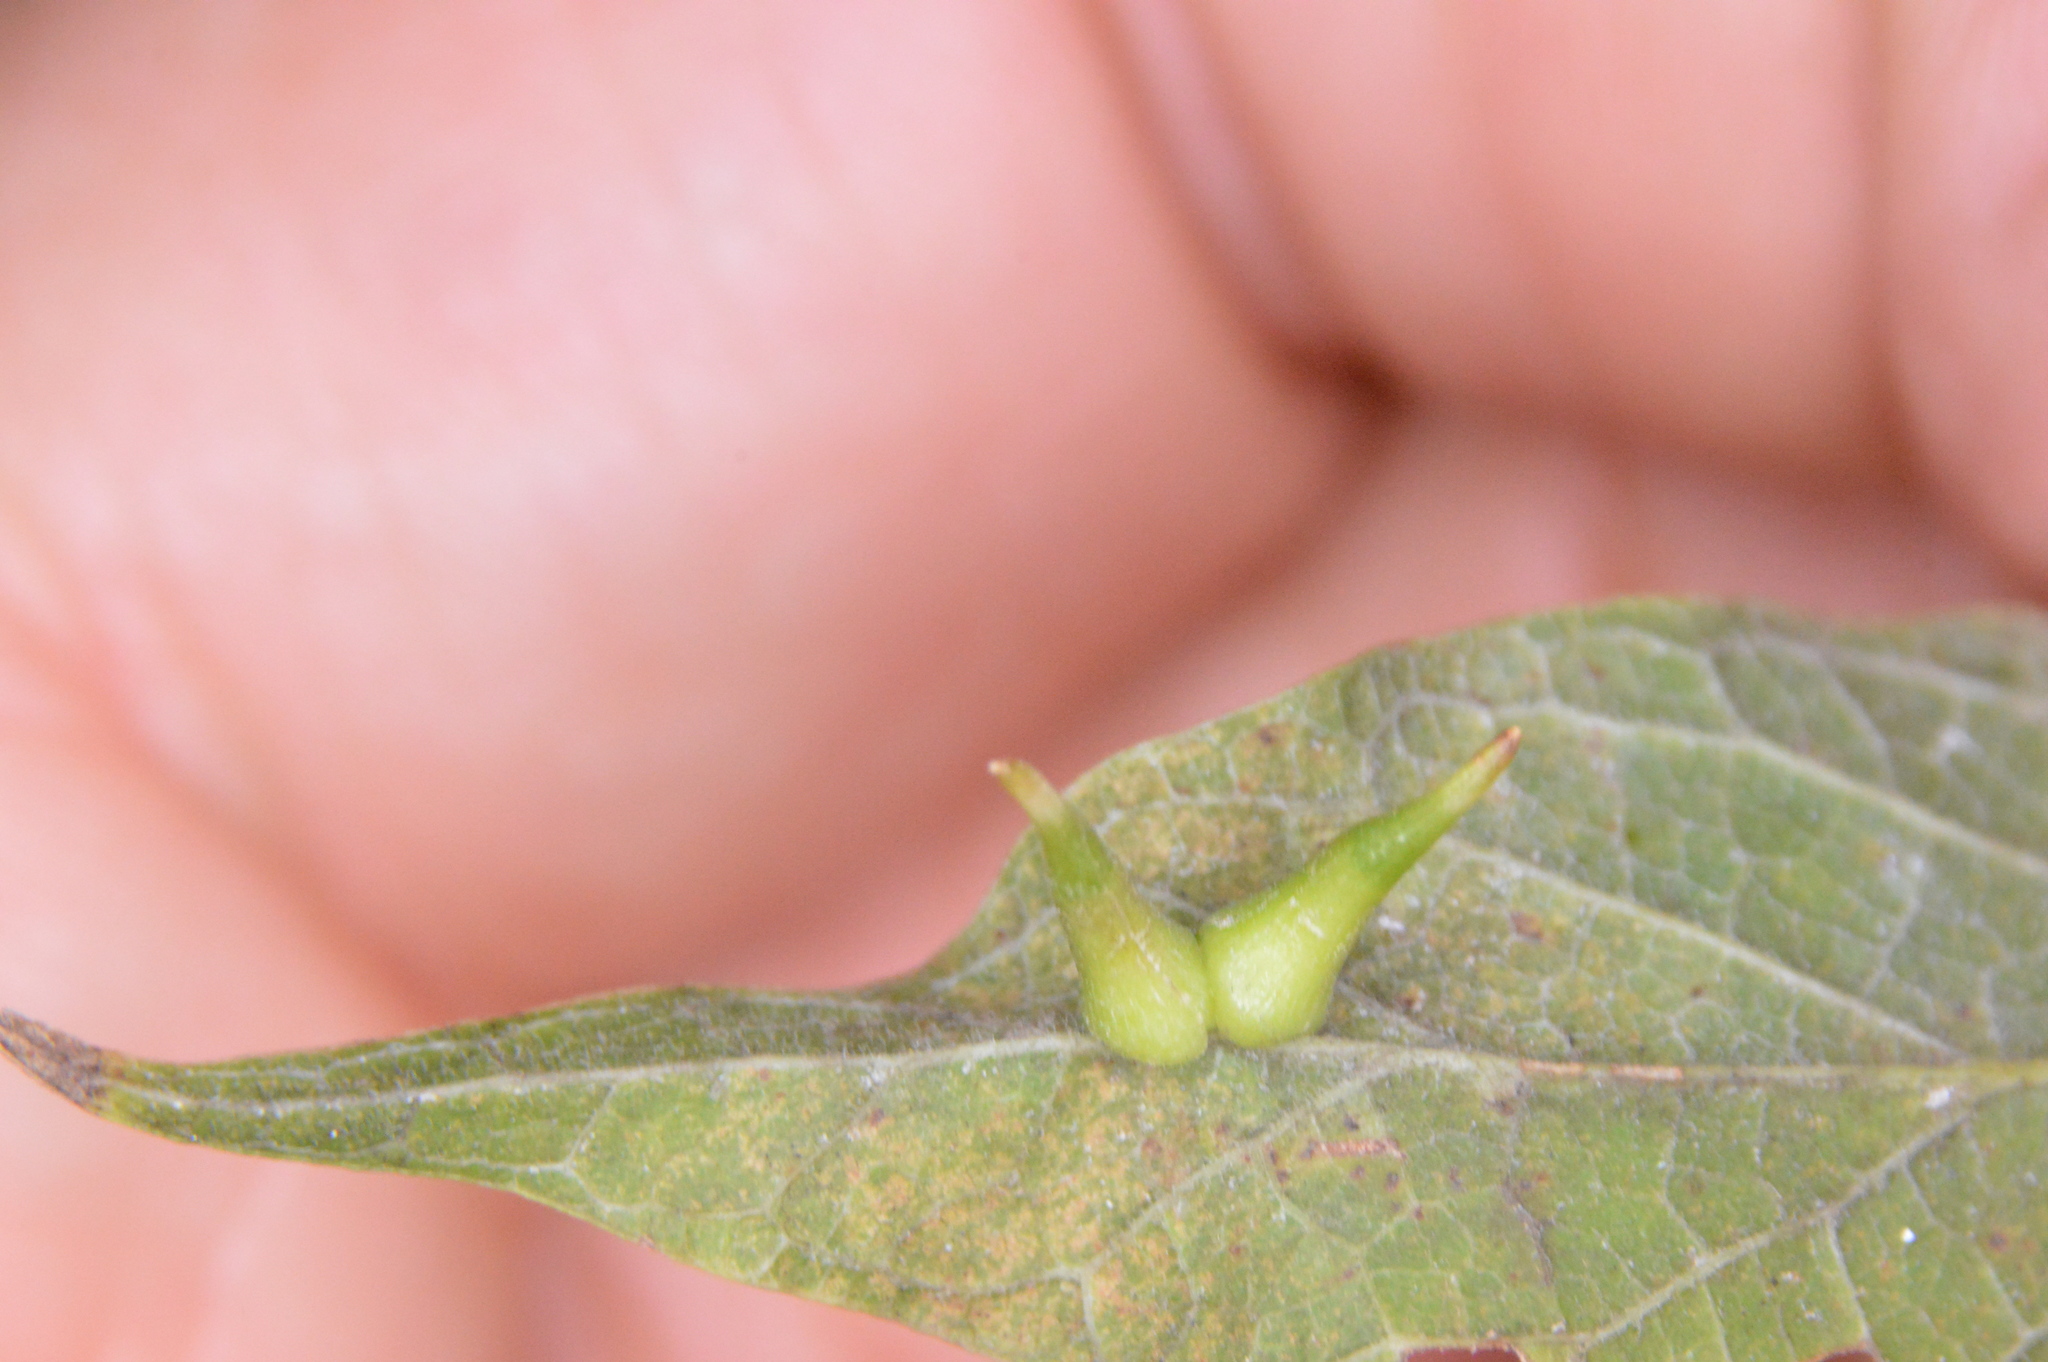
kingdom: Animalia
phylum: Arthropoda
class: Insecta
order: Diptera
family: Cecidomyiidae
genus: Celticecis
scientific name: Celticecis subulata
